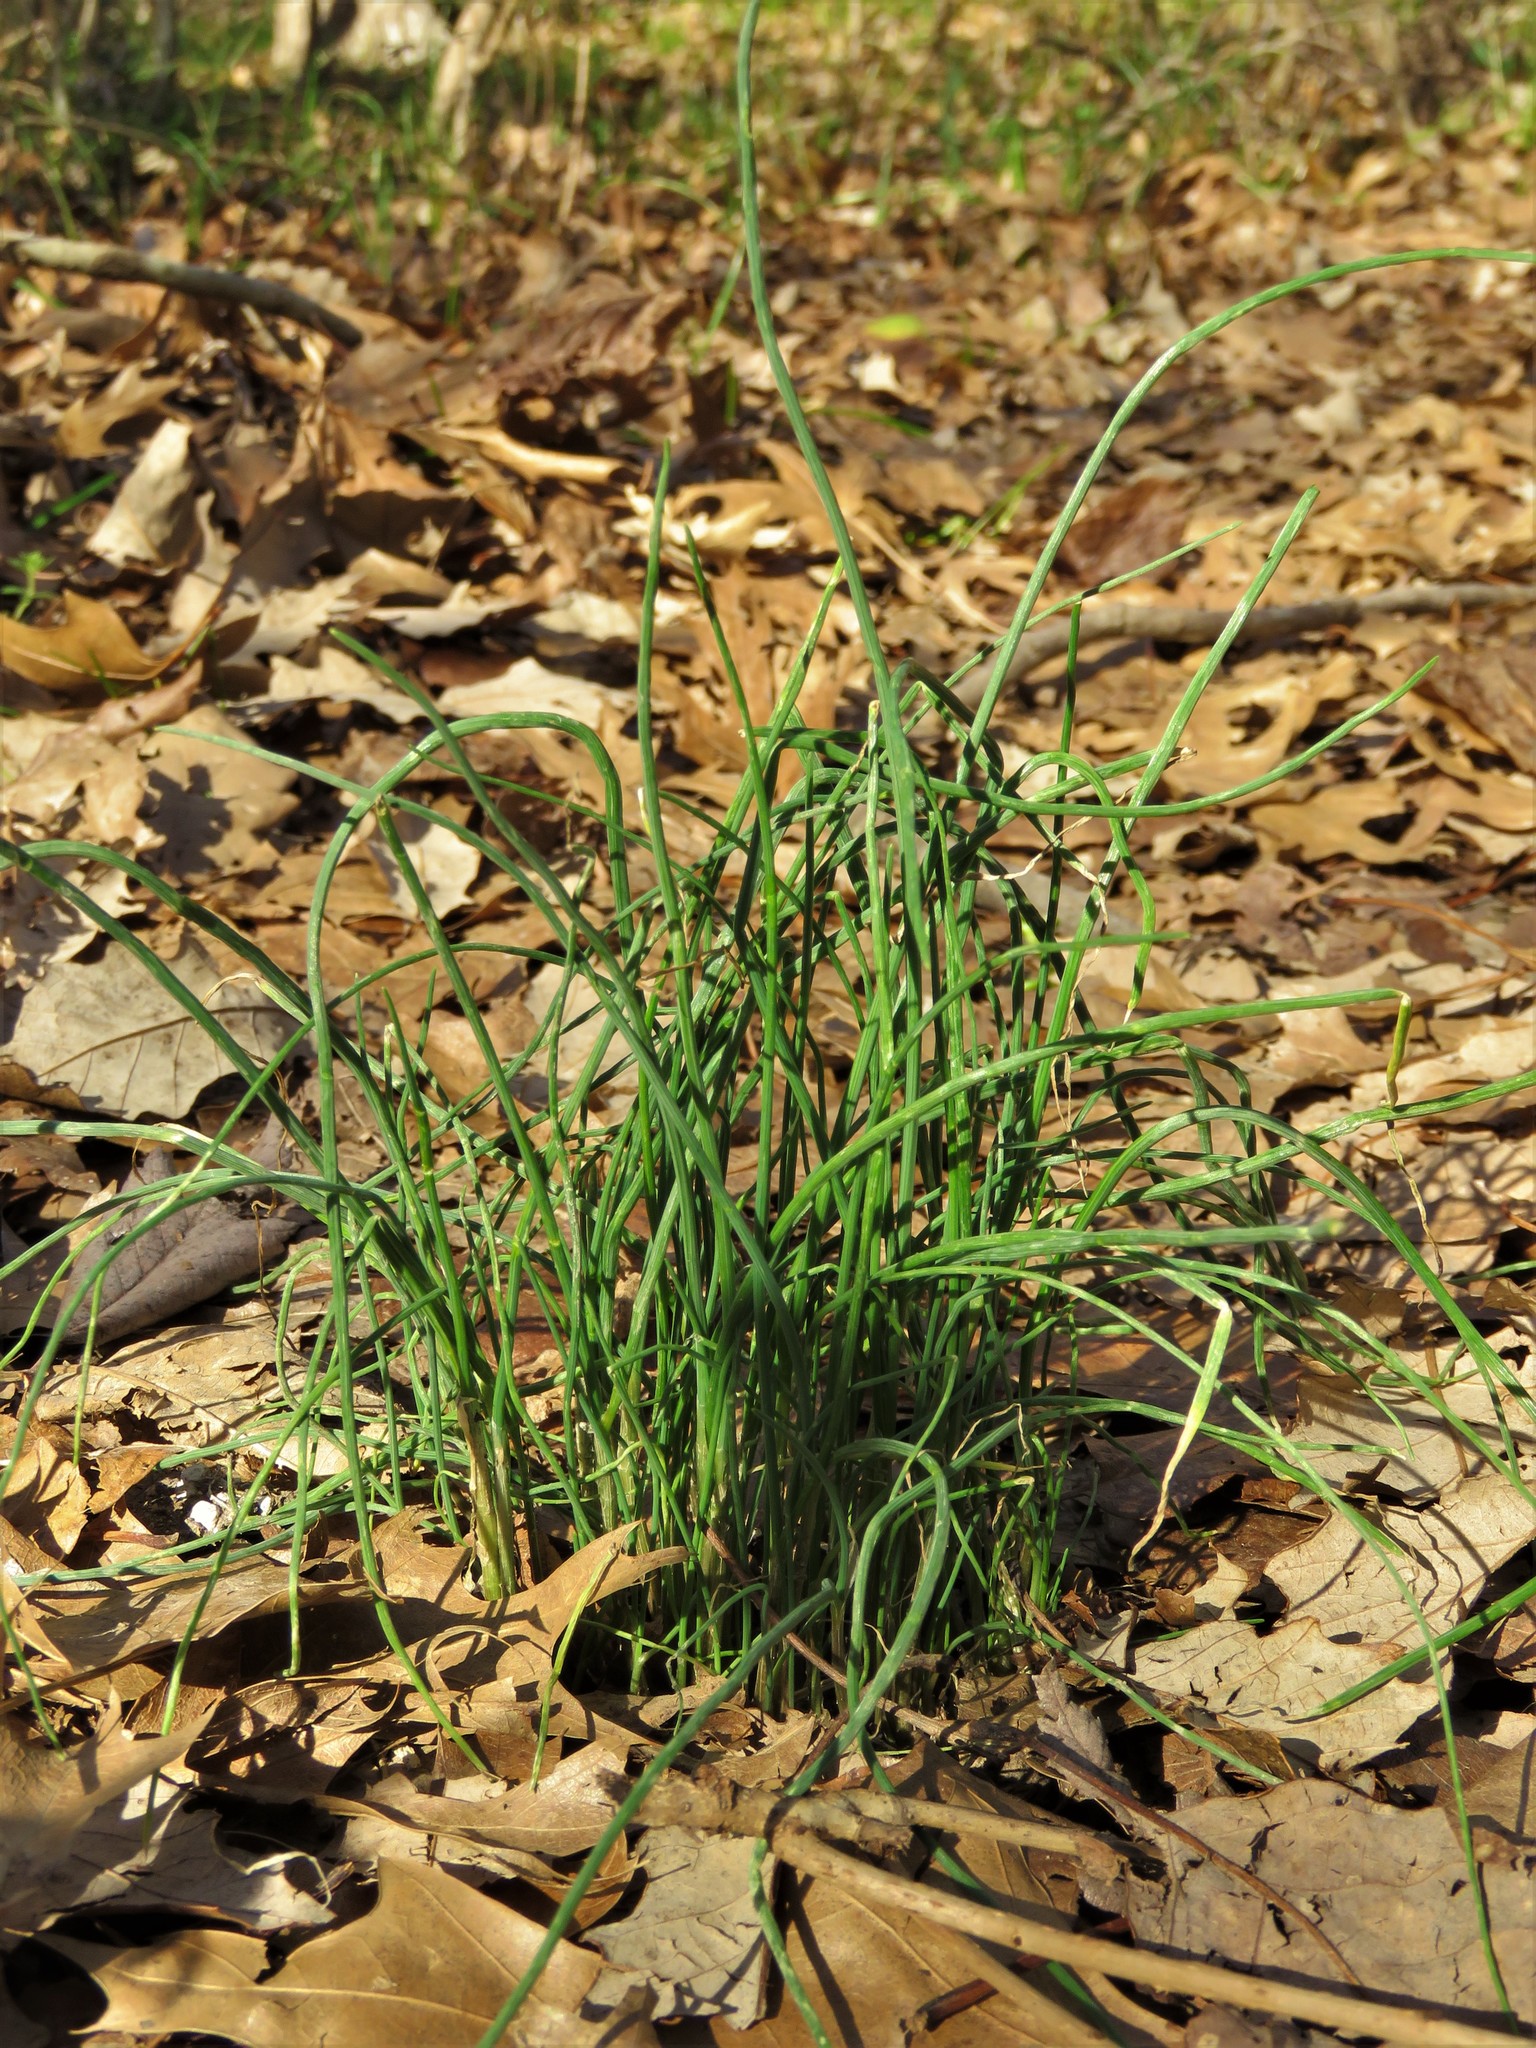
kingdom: Plantae
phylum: Tracheophyta
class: Liliopsida
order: Asparagales
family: Amaryllidaceae
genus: Allium
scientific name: Allium vineale
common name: Crow garlic
